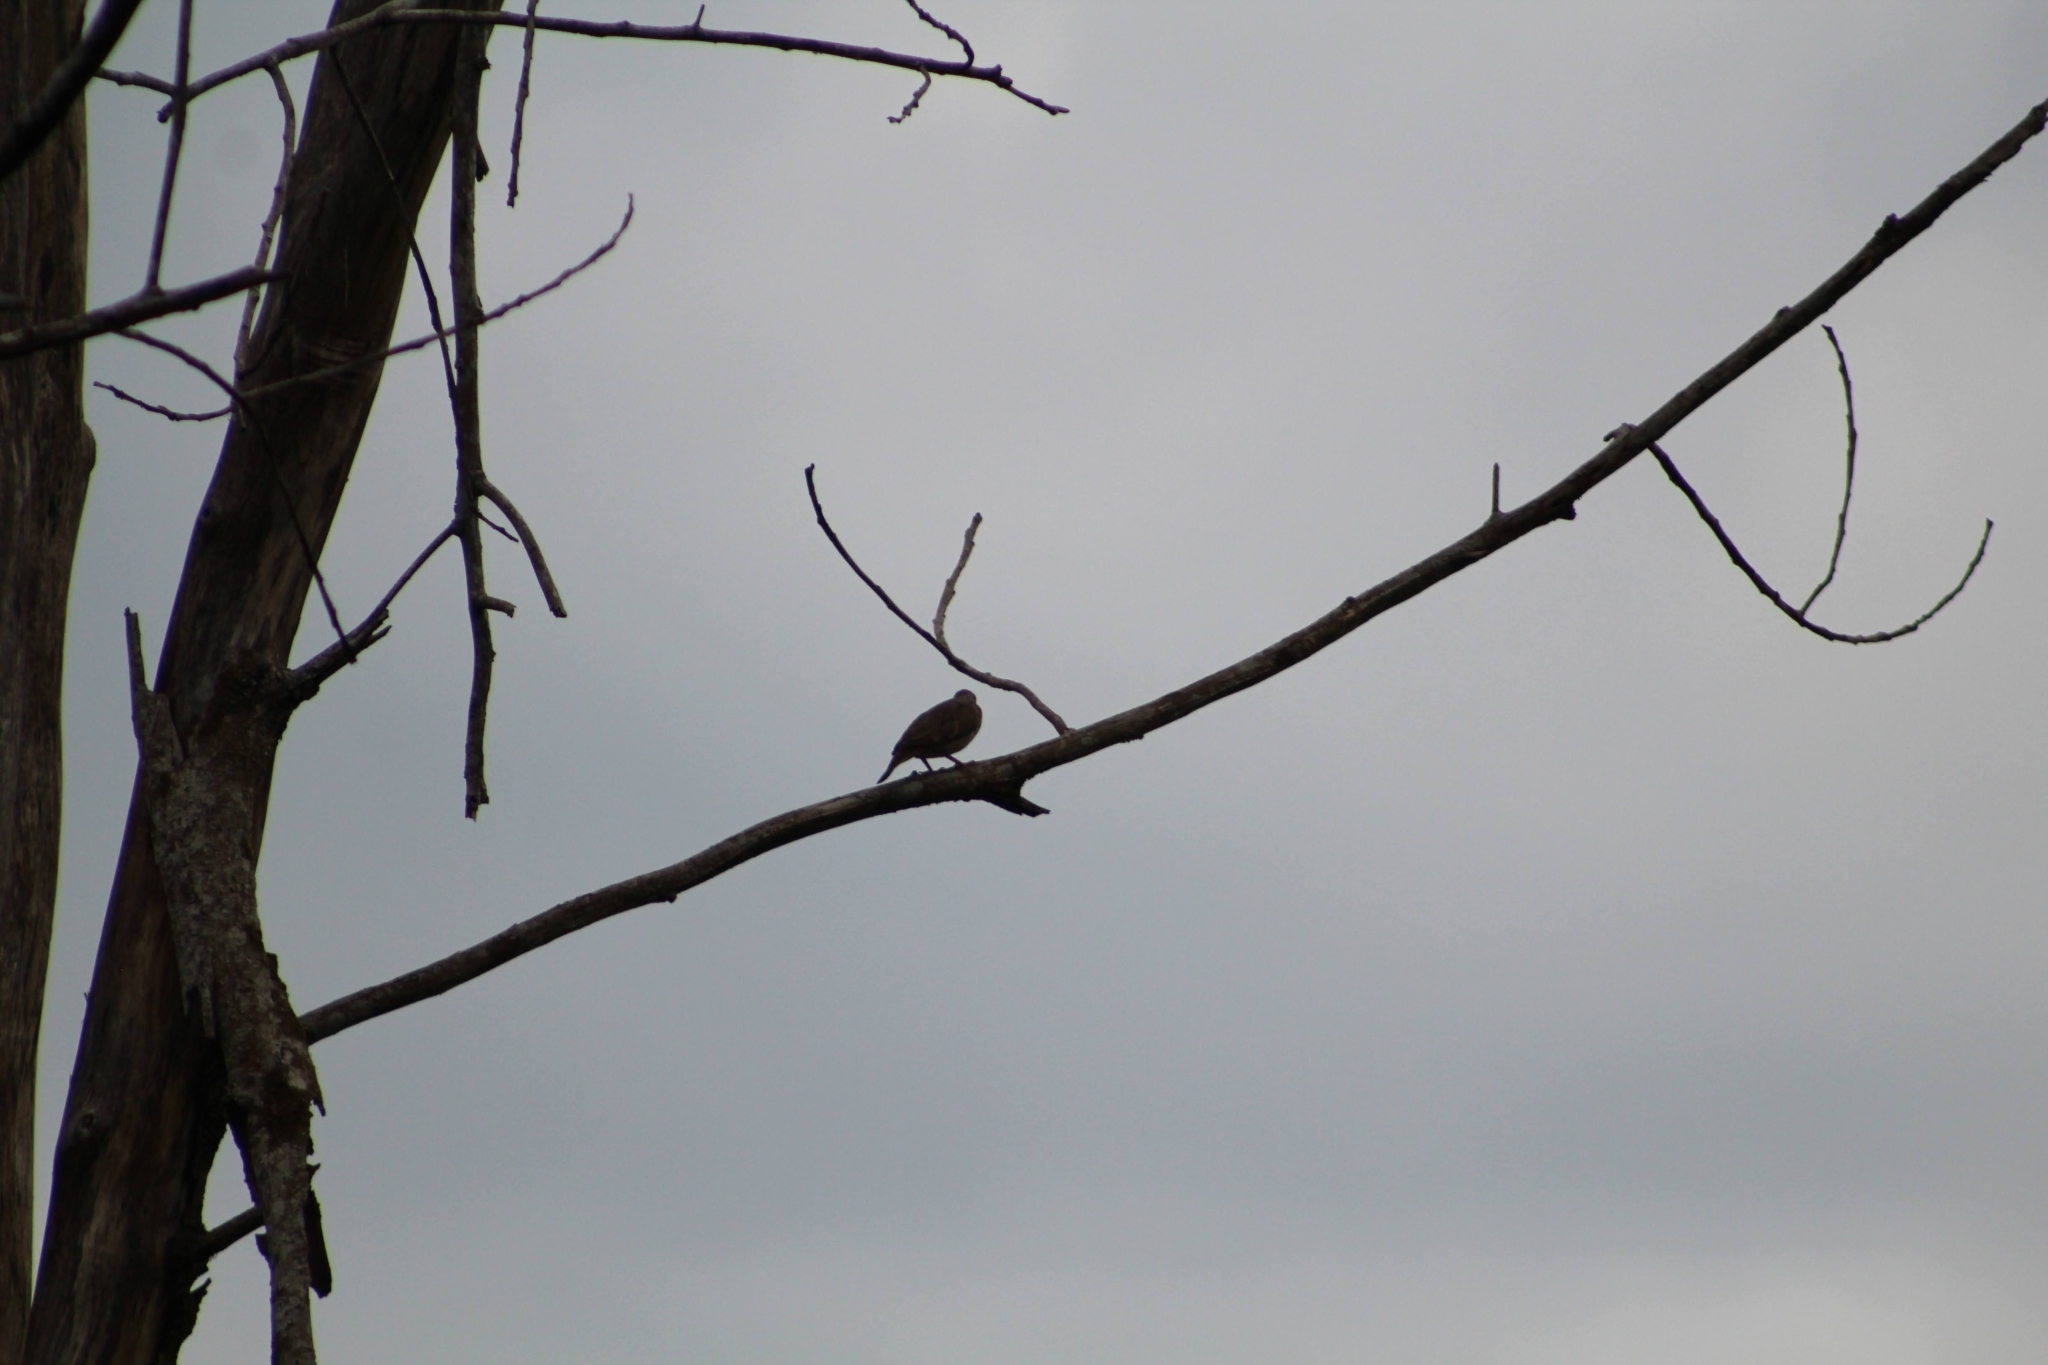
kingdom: Animalia
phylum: Chordata
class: Aves
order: Columbiformes
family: Columbidae
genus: Columbina
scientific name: Columbina talpacoti
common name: Ruddy ground dove
